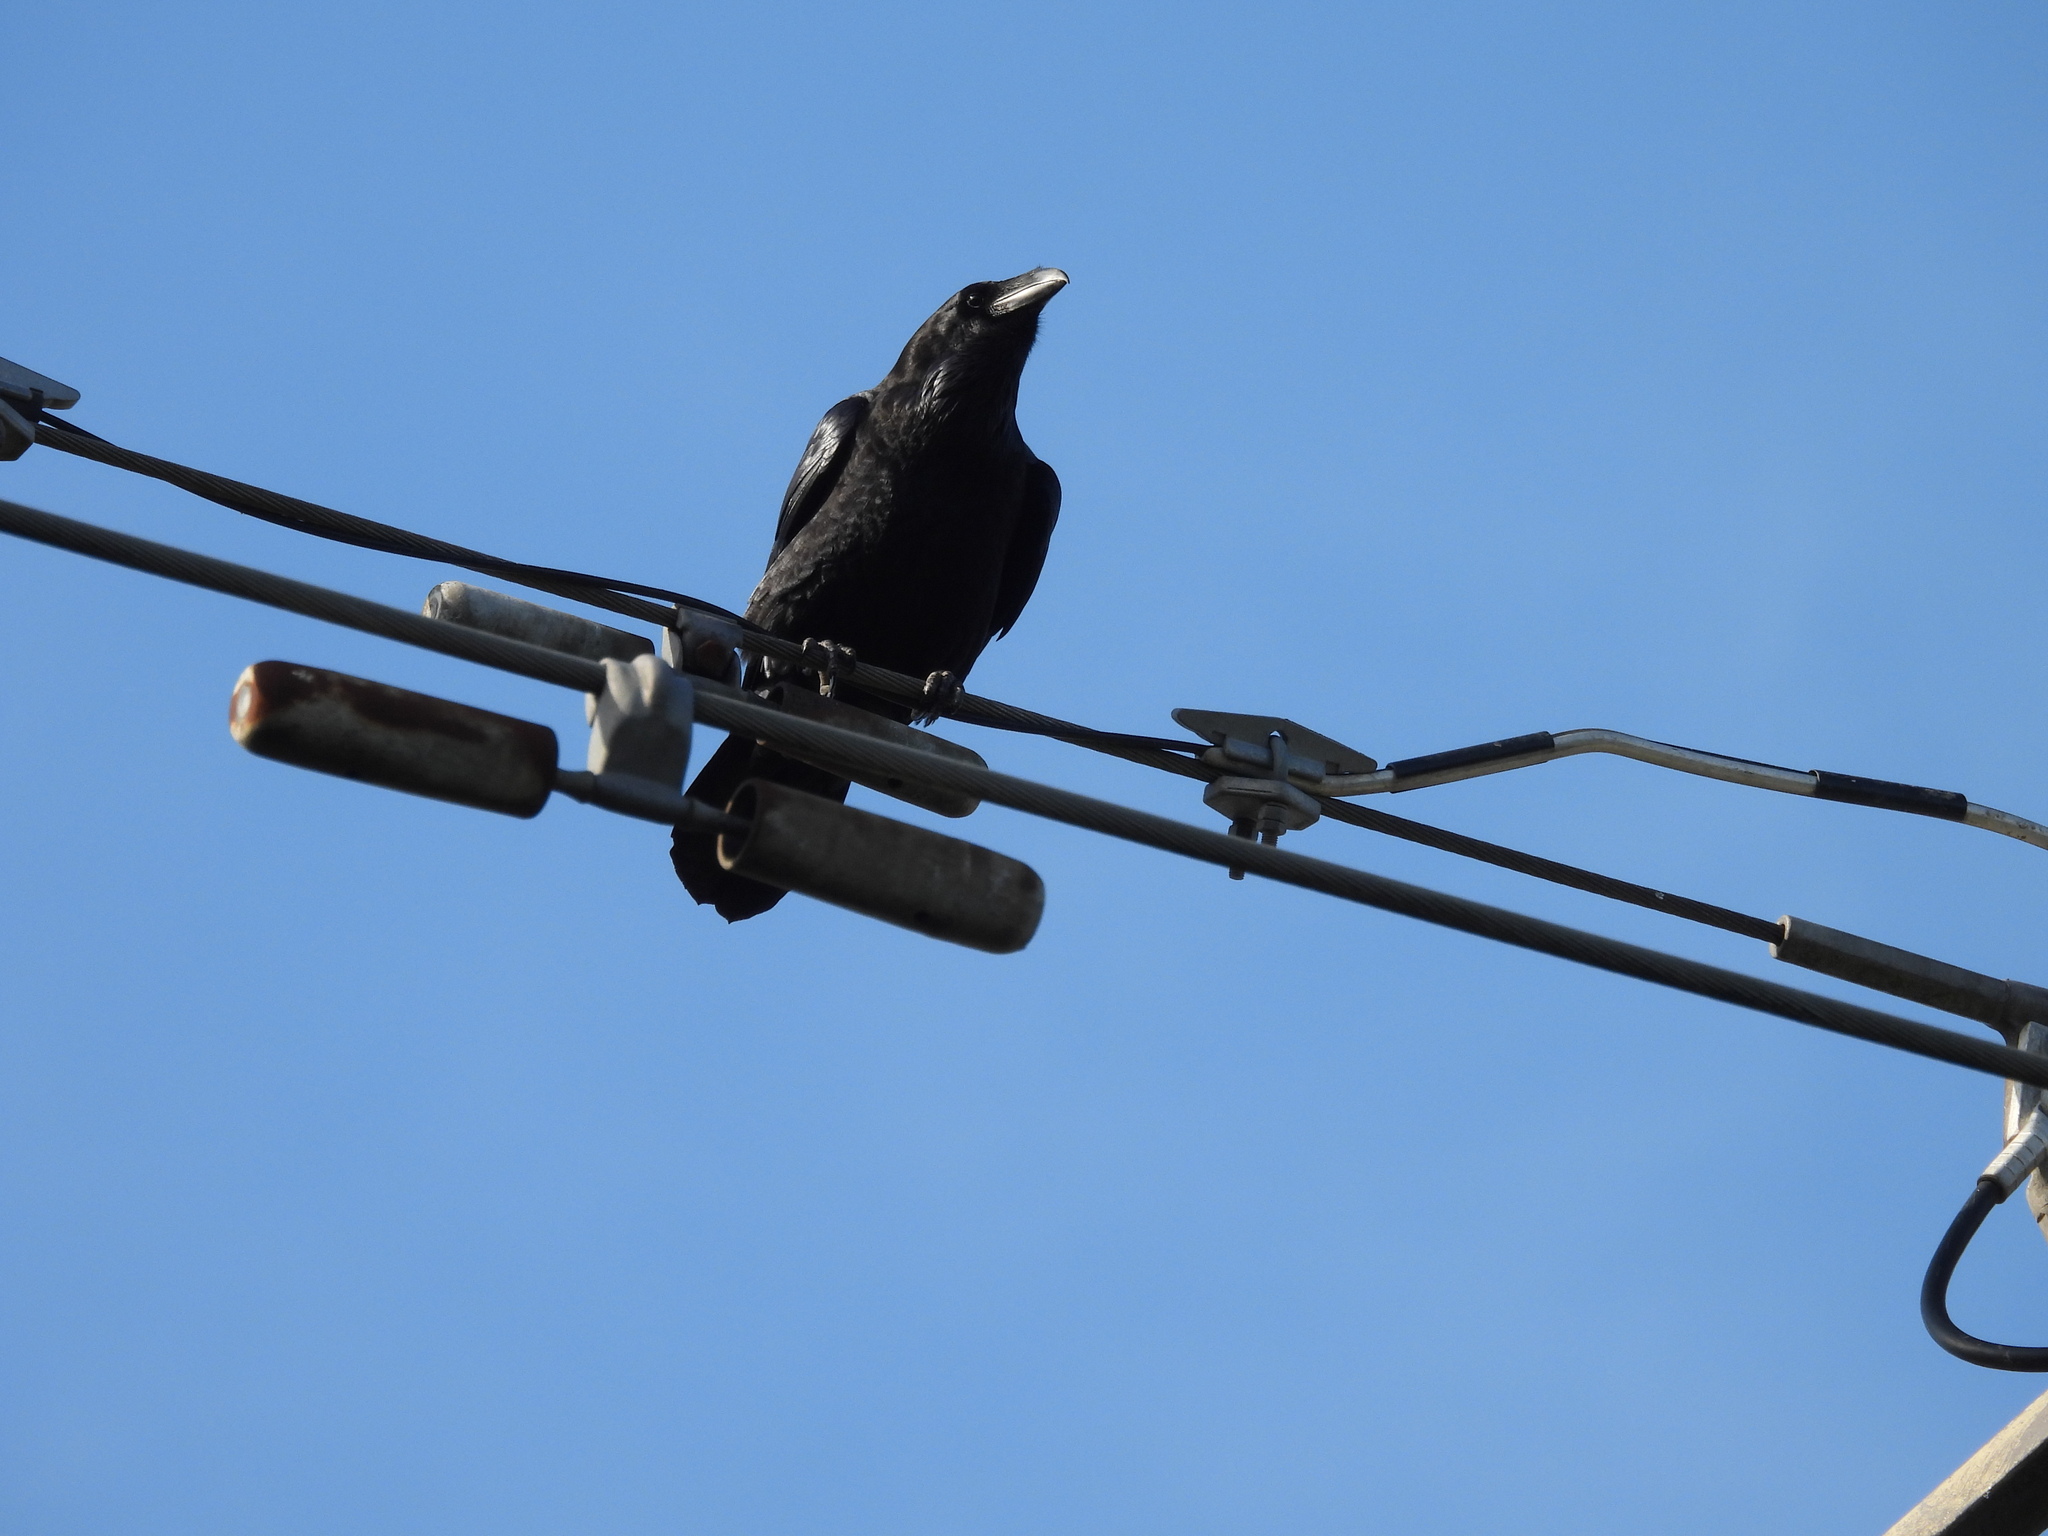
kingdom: Animalia
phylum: Chordata
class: Aves
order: Passeriformes
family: Corvidae
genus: Corvus
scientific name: Corvus corax
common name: Common raven
